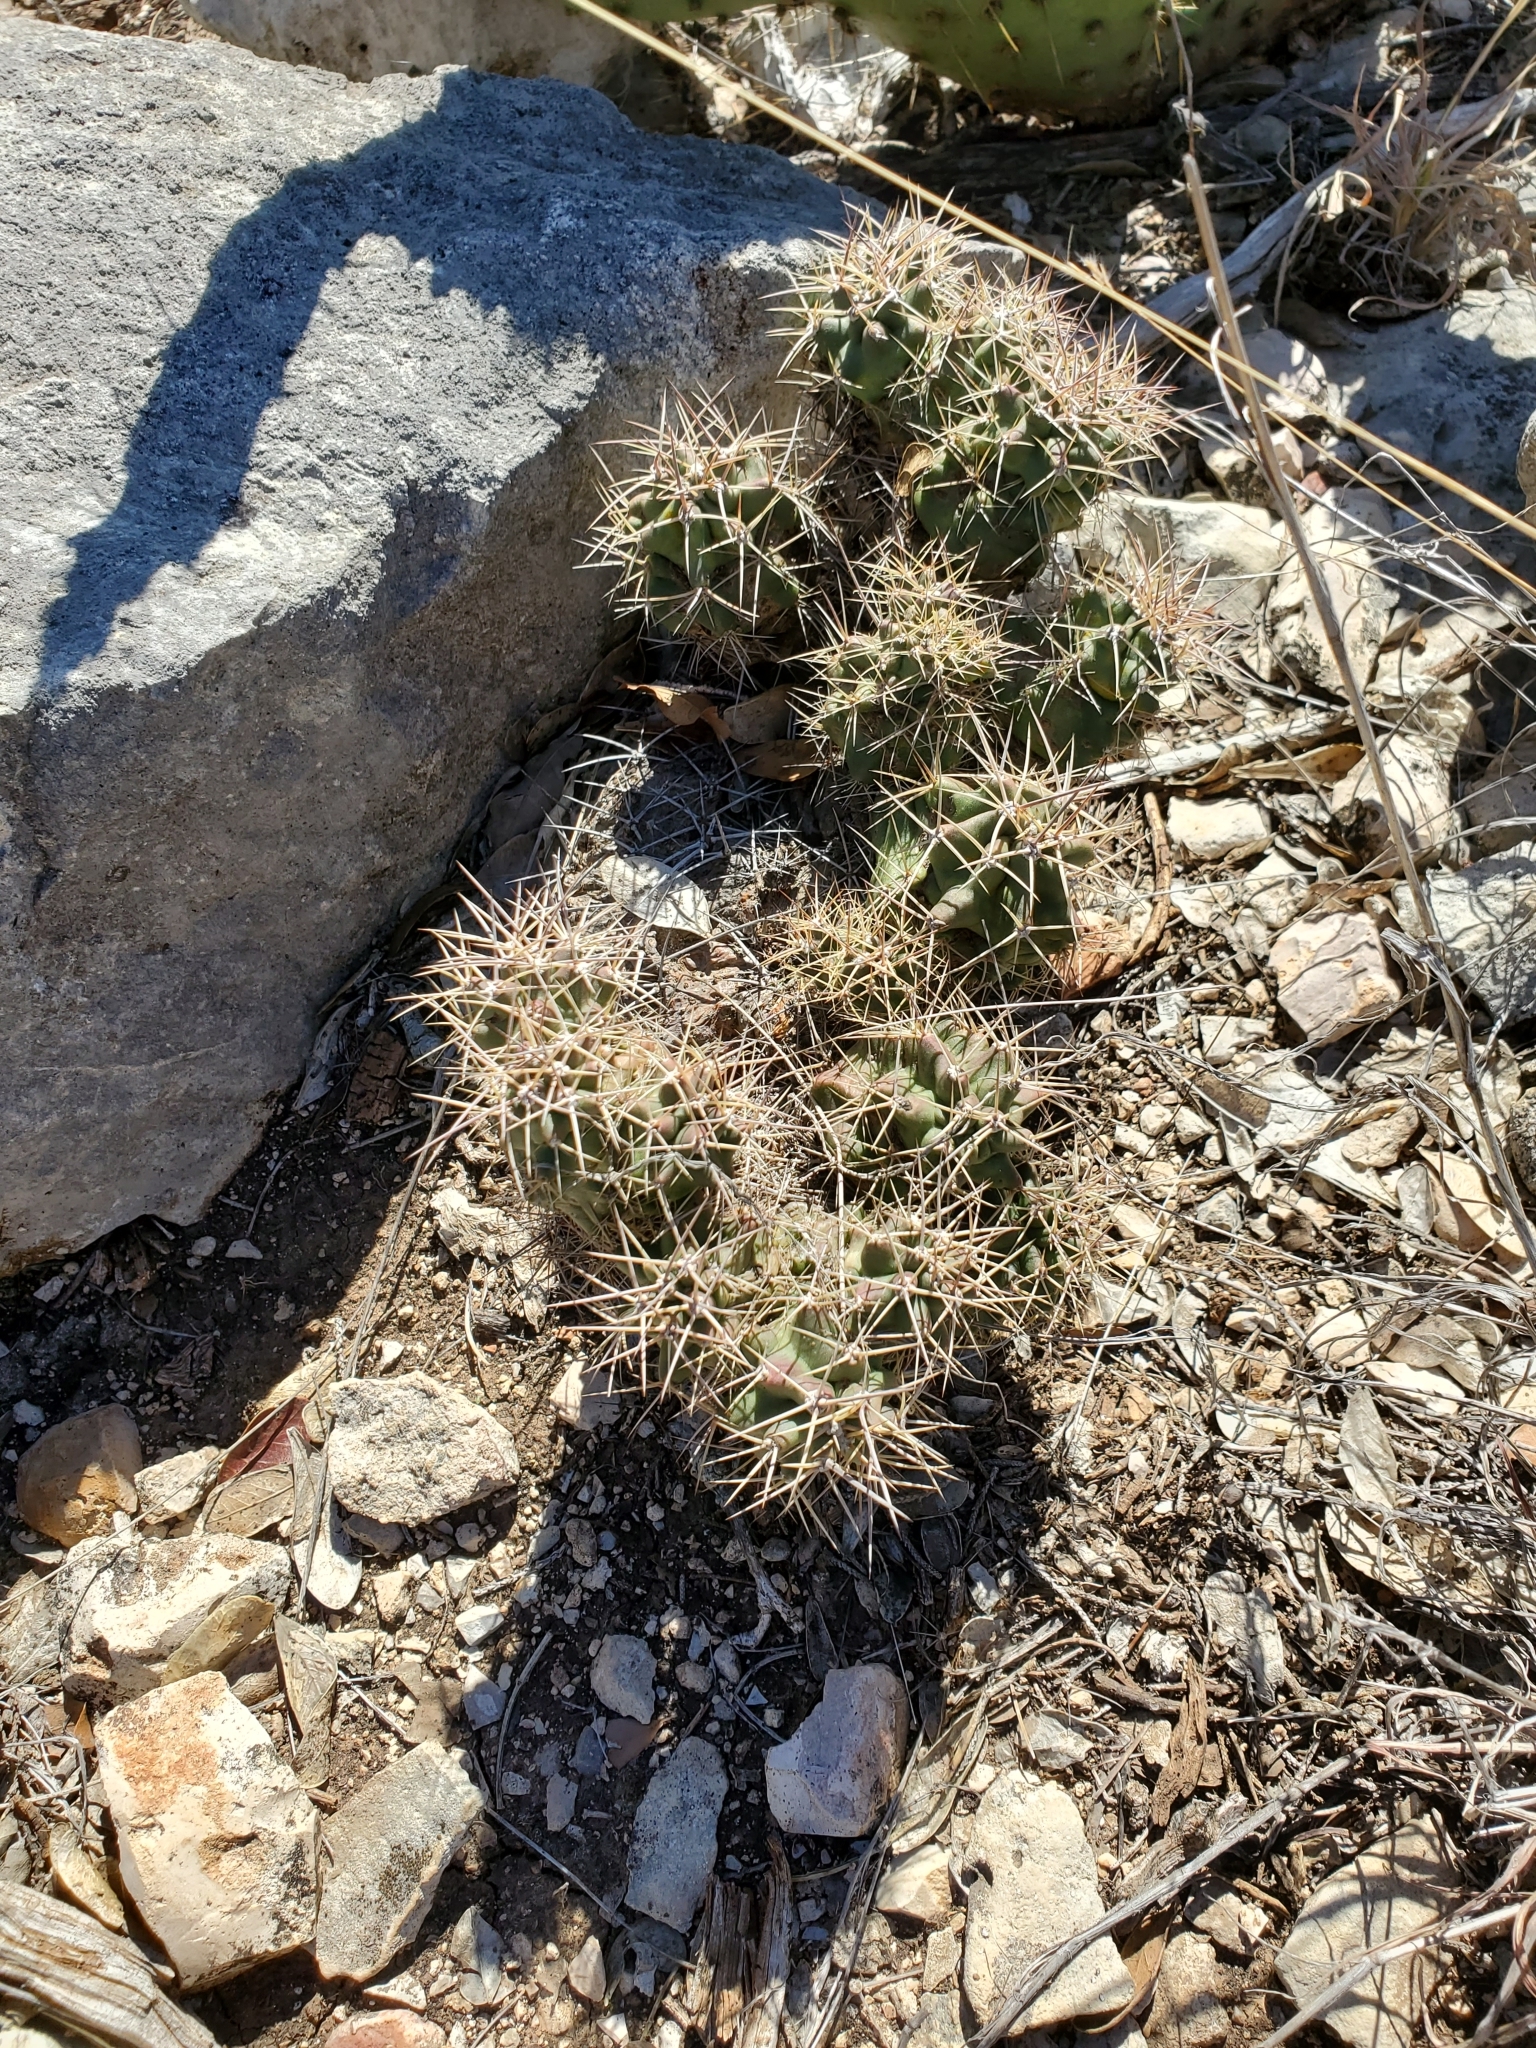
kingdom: Plantae
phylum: Tracheophyta
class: Magnoliopsida
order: Caryophyllales
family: Cactaceae
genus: Echinocereus
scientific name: Echinocereus coccineus
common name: Scarlet hedgehog cactus
